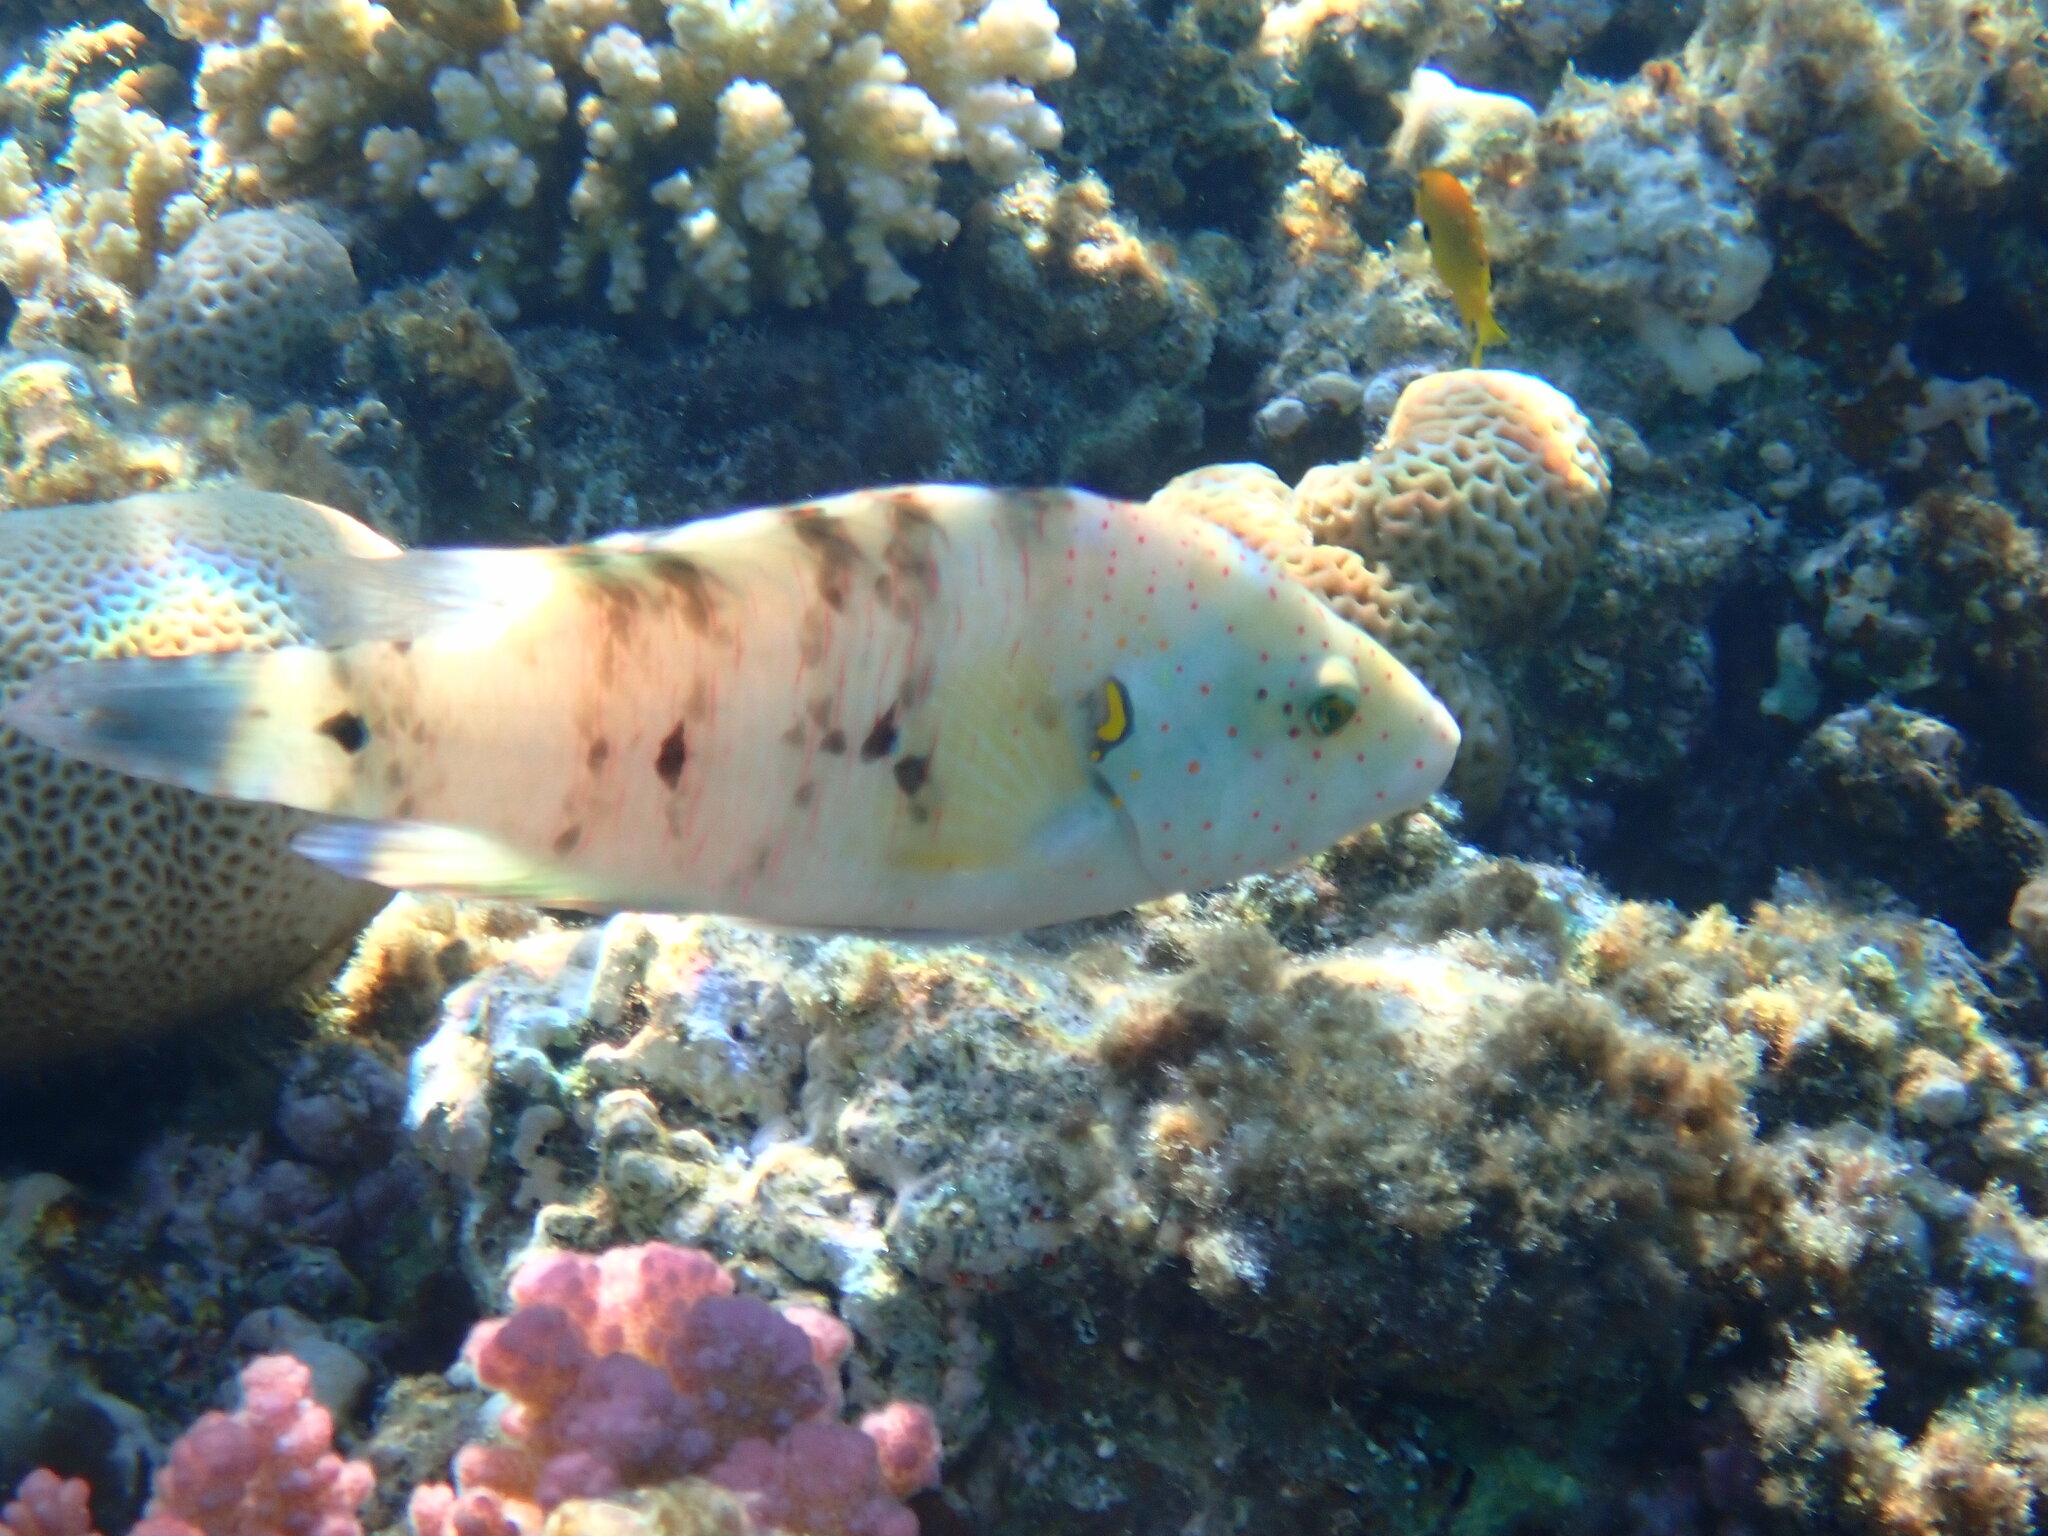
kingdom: Animalia
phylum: Chordata
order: Perciformes
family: Labridae
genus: Cheilinus
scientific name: Cheilinus lunulatus
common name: Broomtail wrasse
